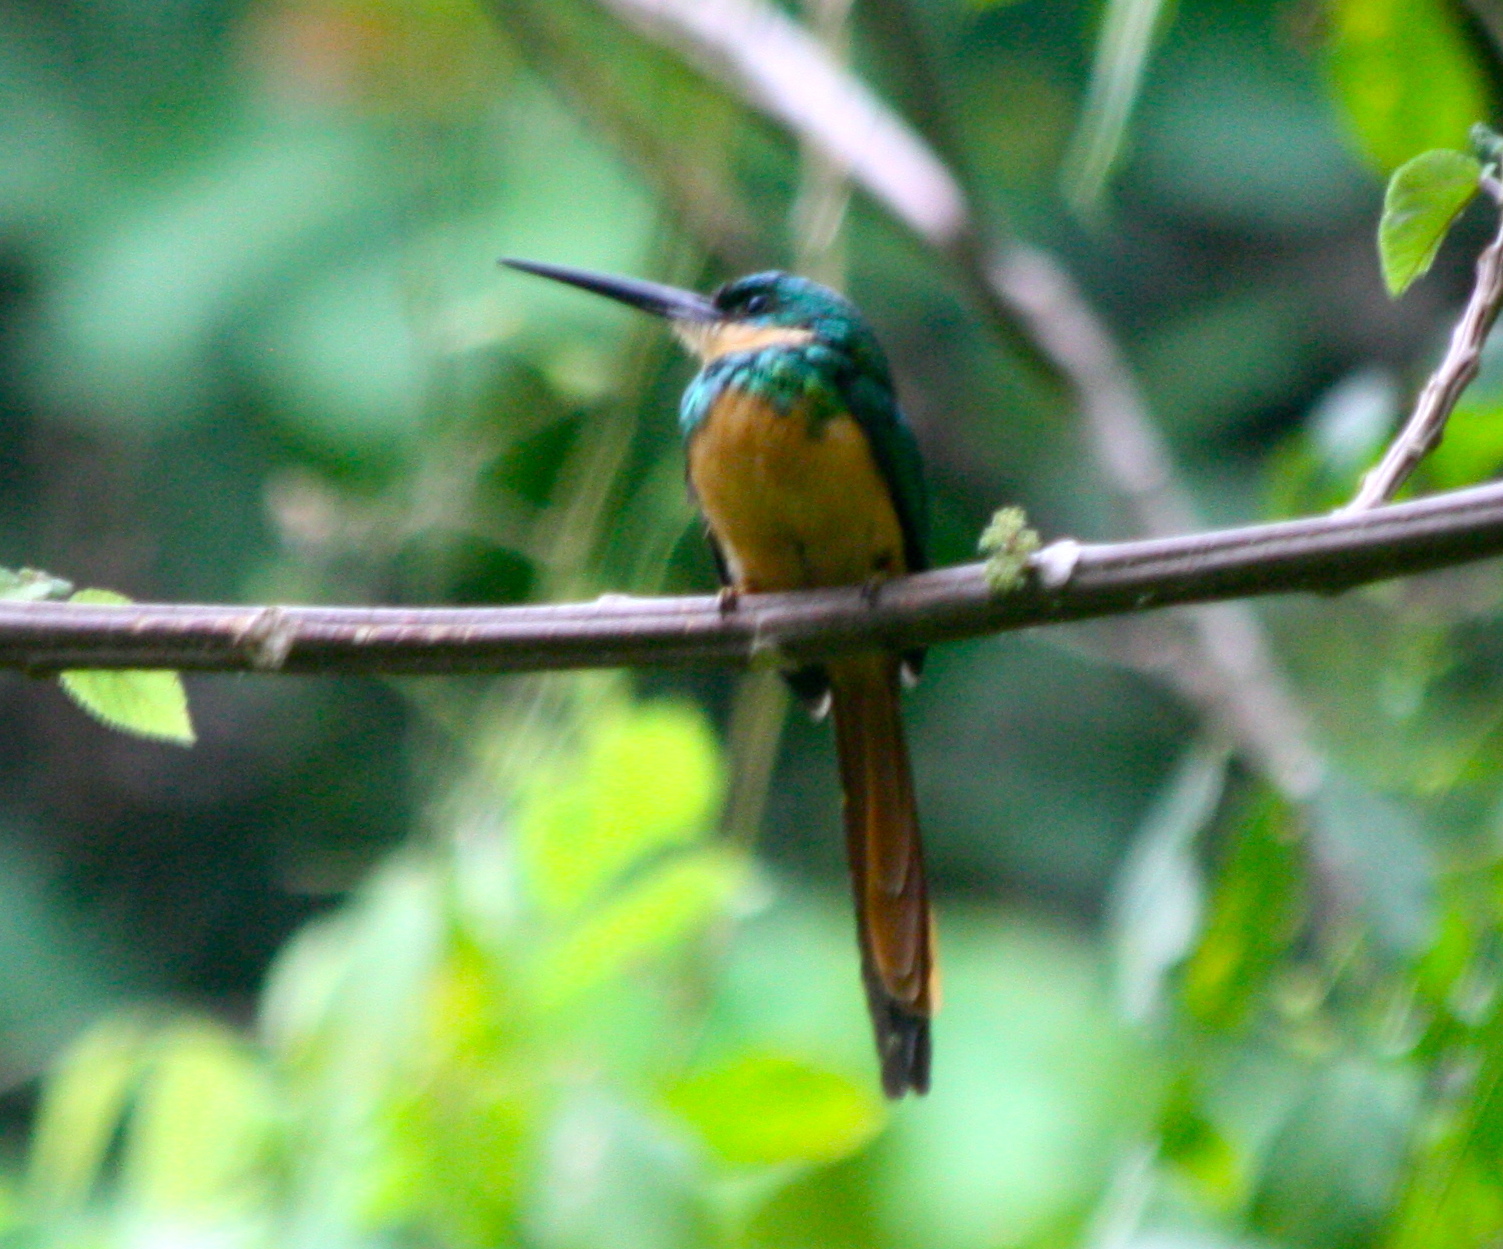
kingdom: Animalia
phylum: Chordata
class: Aves
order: Piciformes
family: Galbulidae
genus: Galbula
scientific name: Galbula ruficauda
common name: Rufous-tailed jacamar
